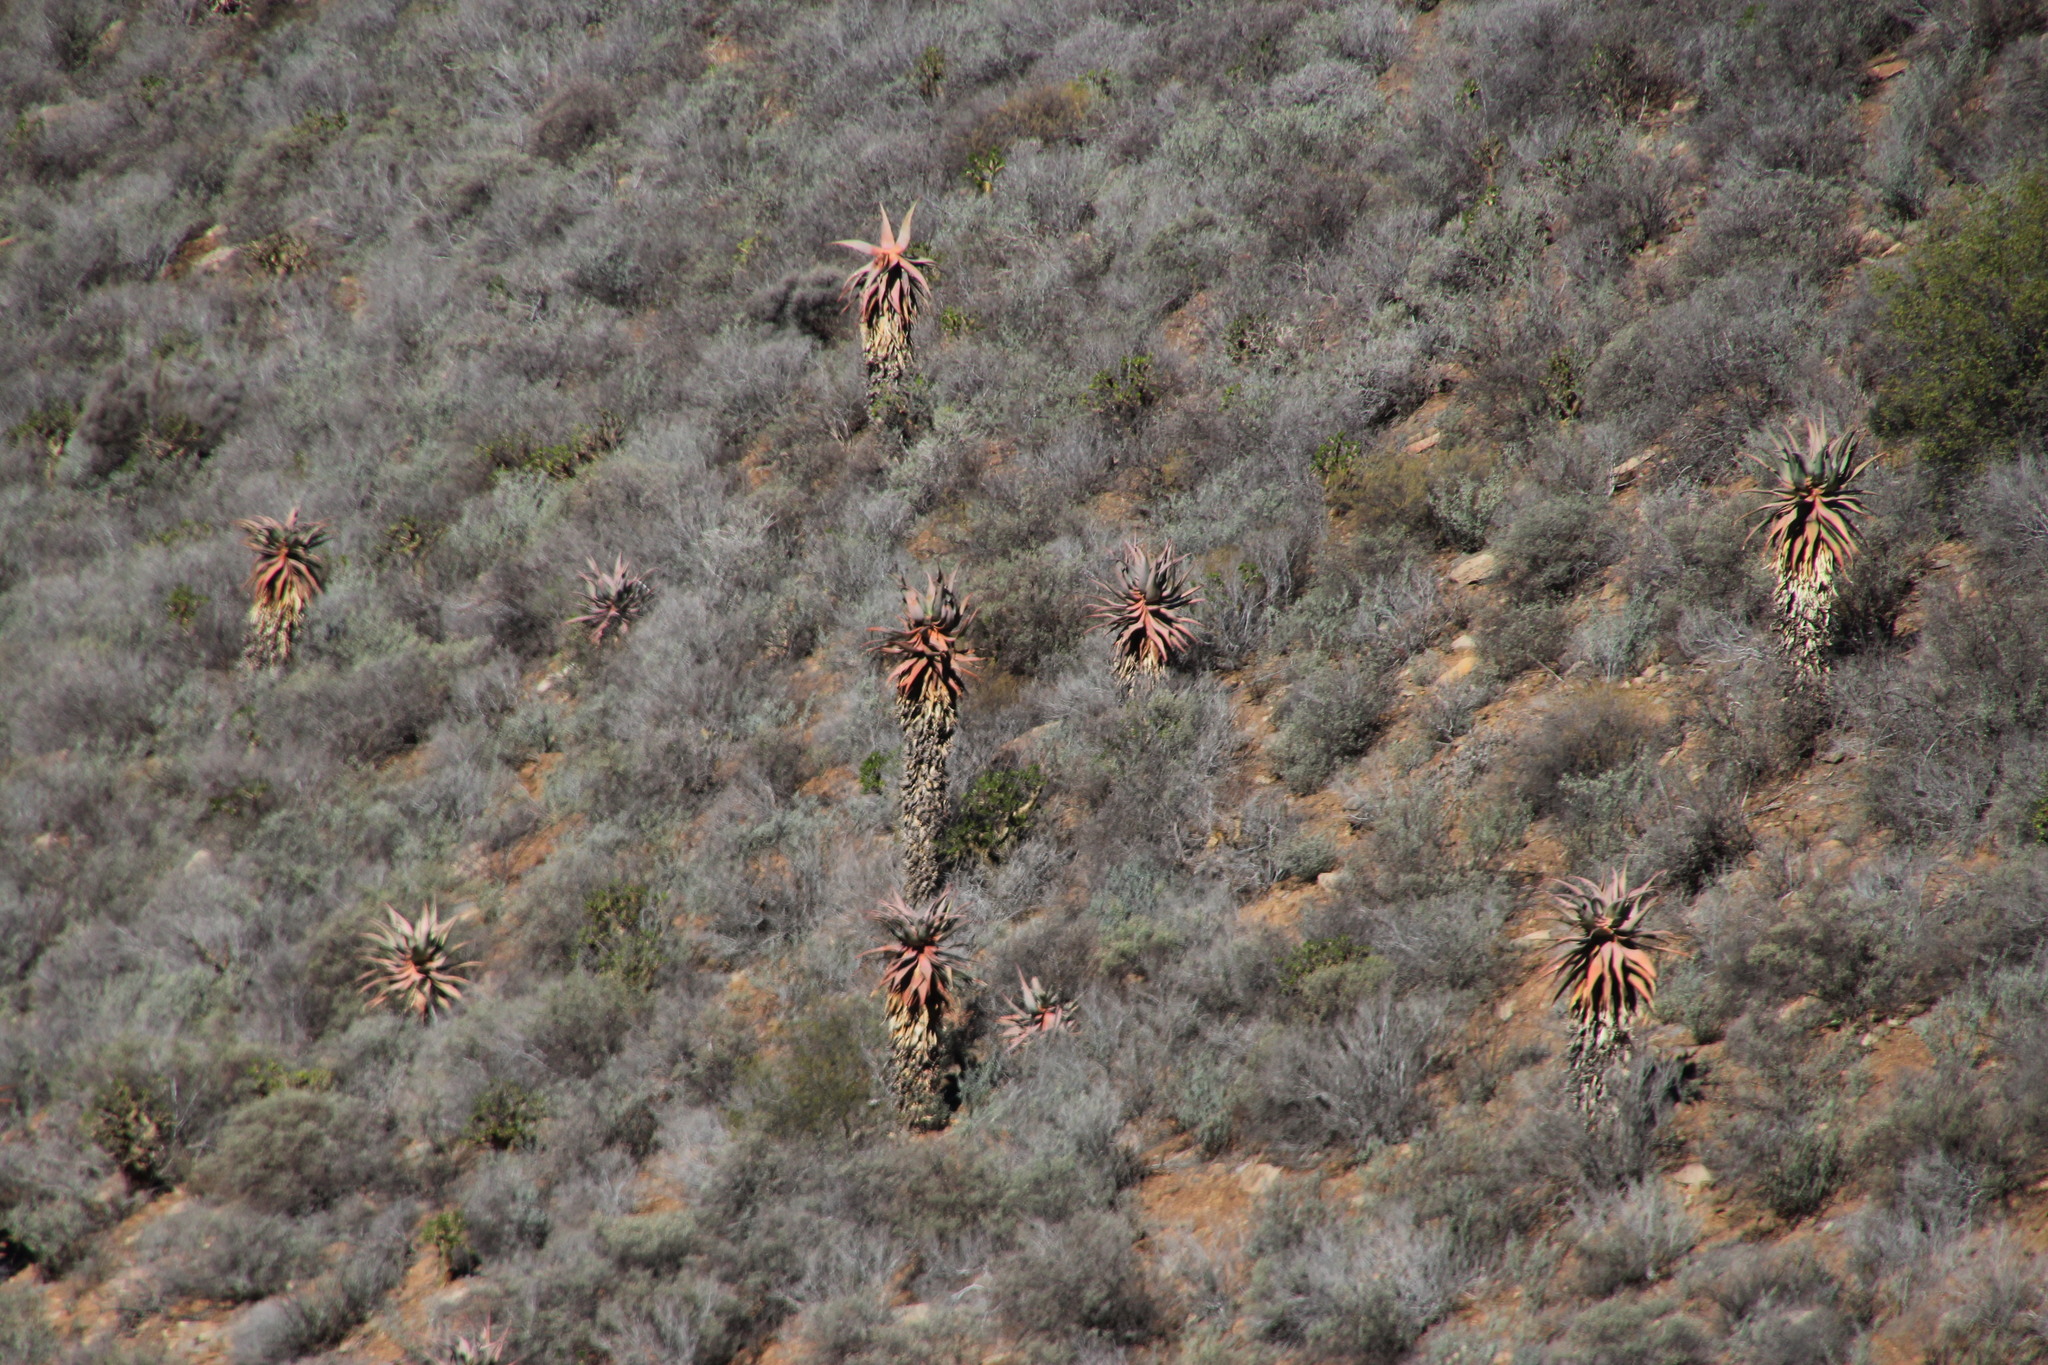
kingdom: Plantae
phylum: Tracheophyta
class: Liliopsida
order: Asparagales
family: Asphodelaceae
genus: Aloe
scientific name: Aloe comosa
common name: Clanwilliam aloe
